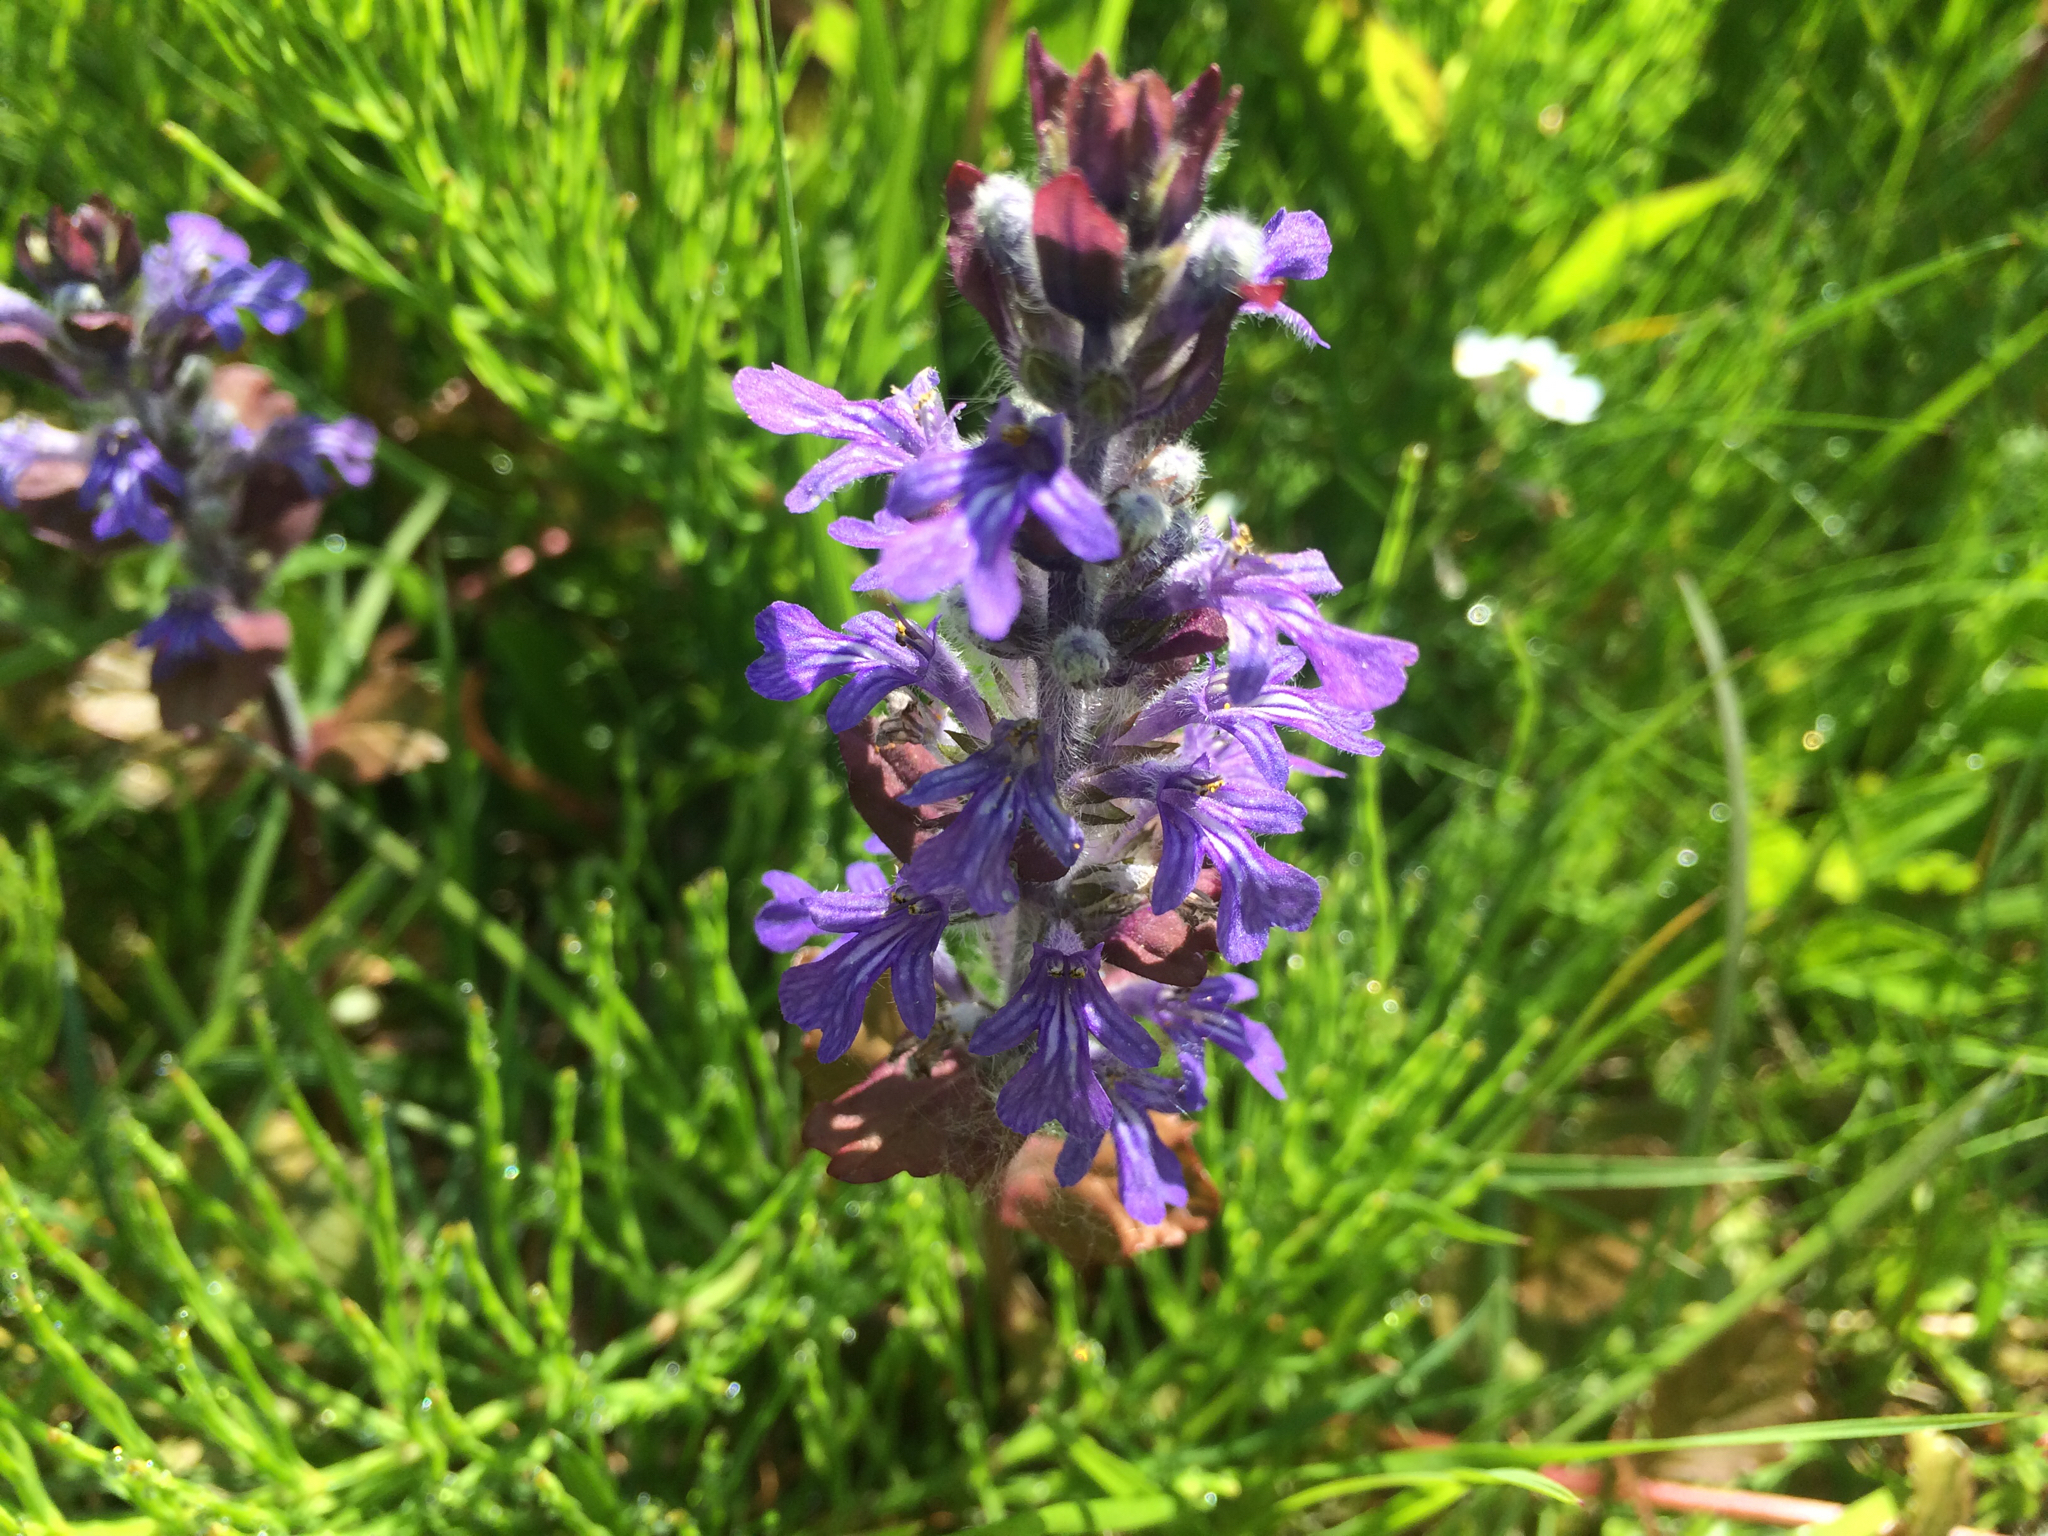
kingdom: Plantae
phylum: Tracheophyta
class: Magnoliopsida
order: Lamiales
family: Lamiaceae
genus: Ajuga
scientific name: Ajuga reptans
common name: Bugle
